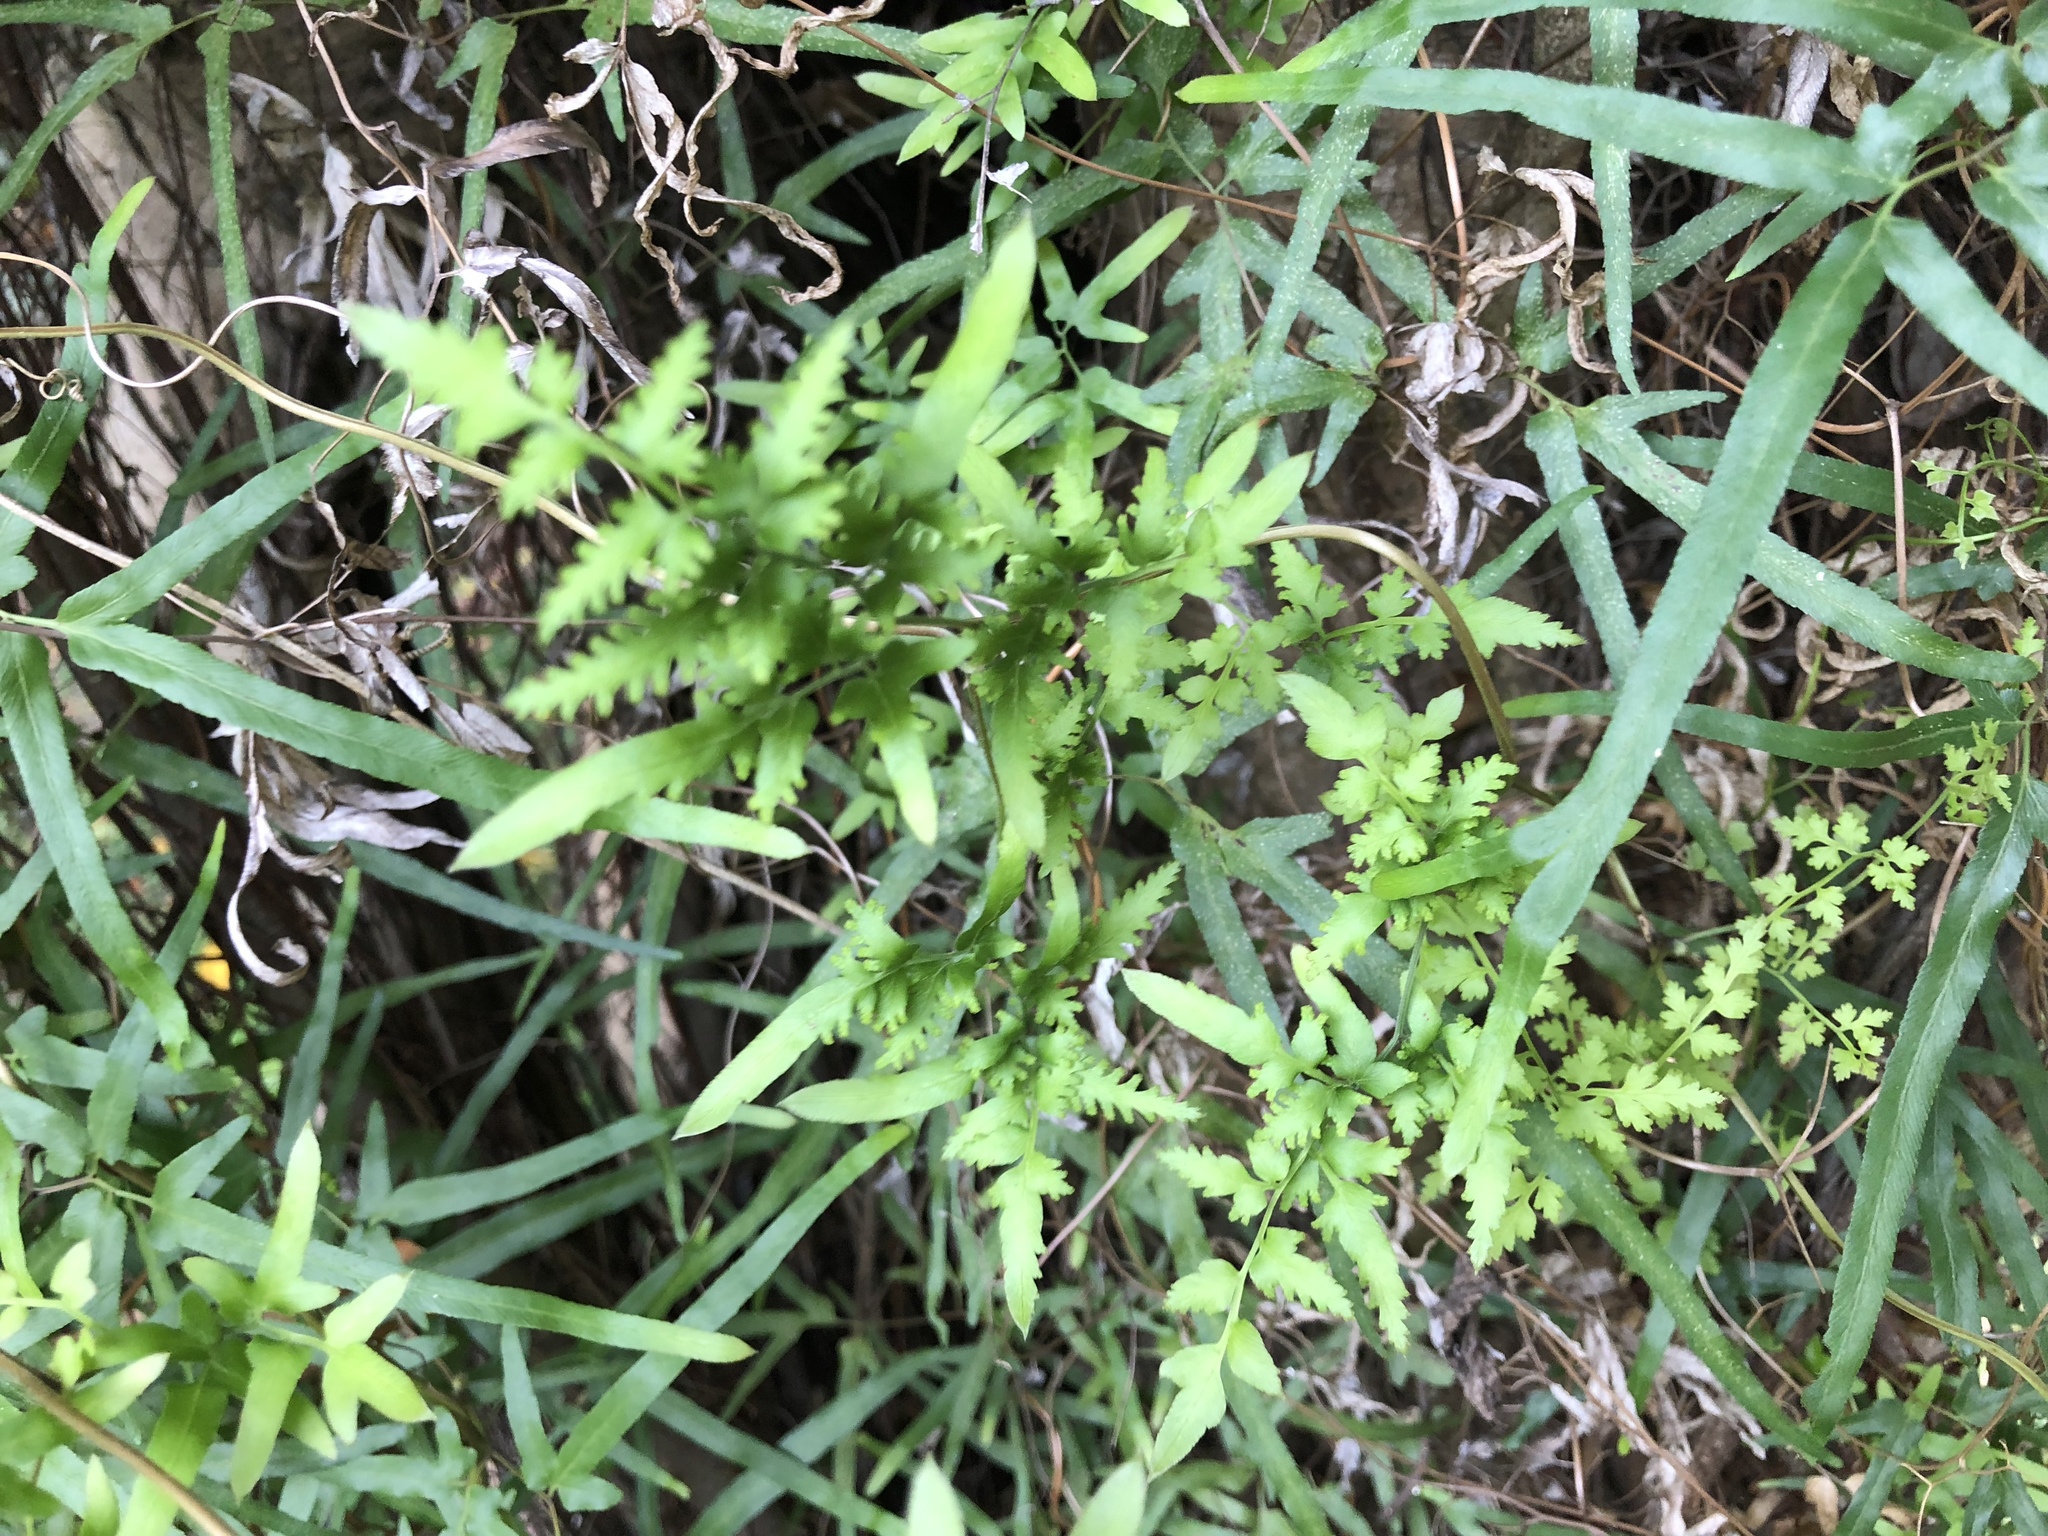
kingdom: Plantae
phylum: Tracheophyta
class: Polypodiopsida
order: Schizaeales
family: Lygodiaceae
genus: Lygodium
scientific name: Lygodium japonicum
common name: Japanese climbing fern
